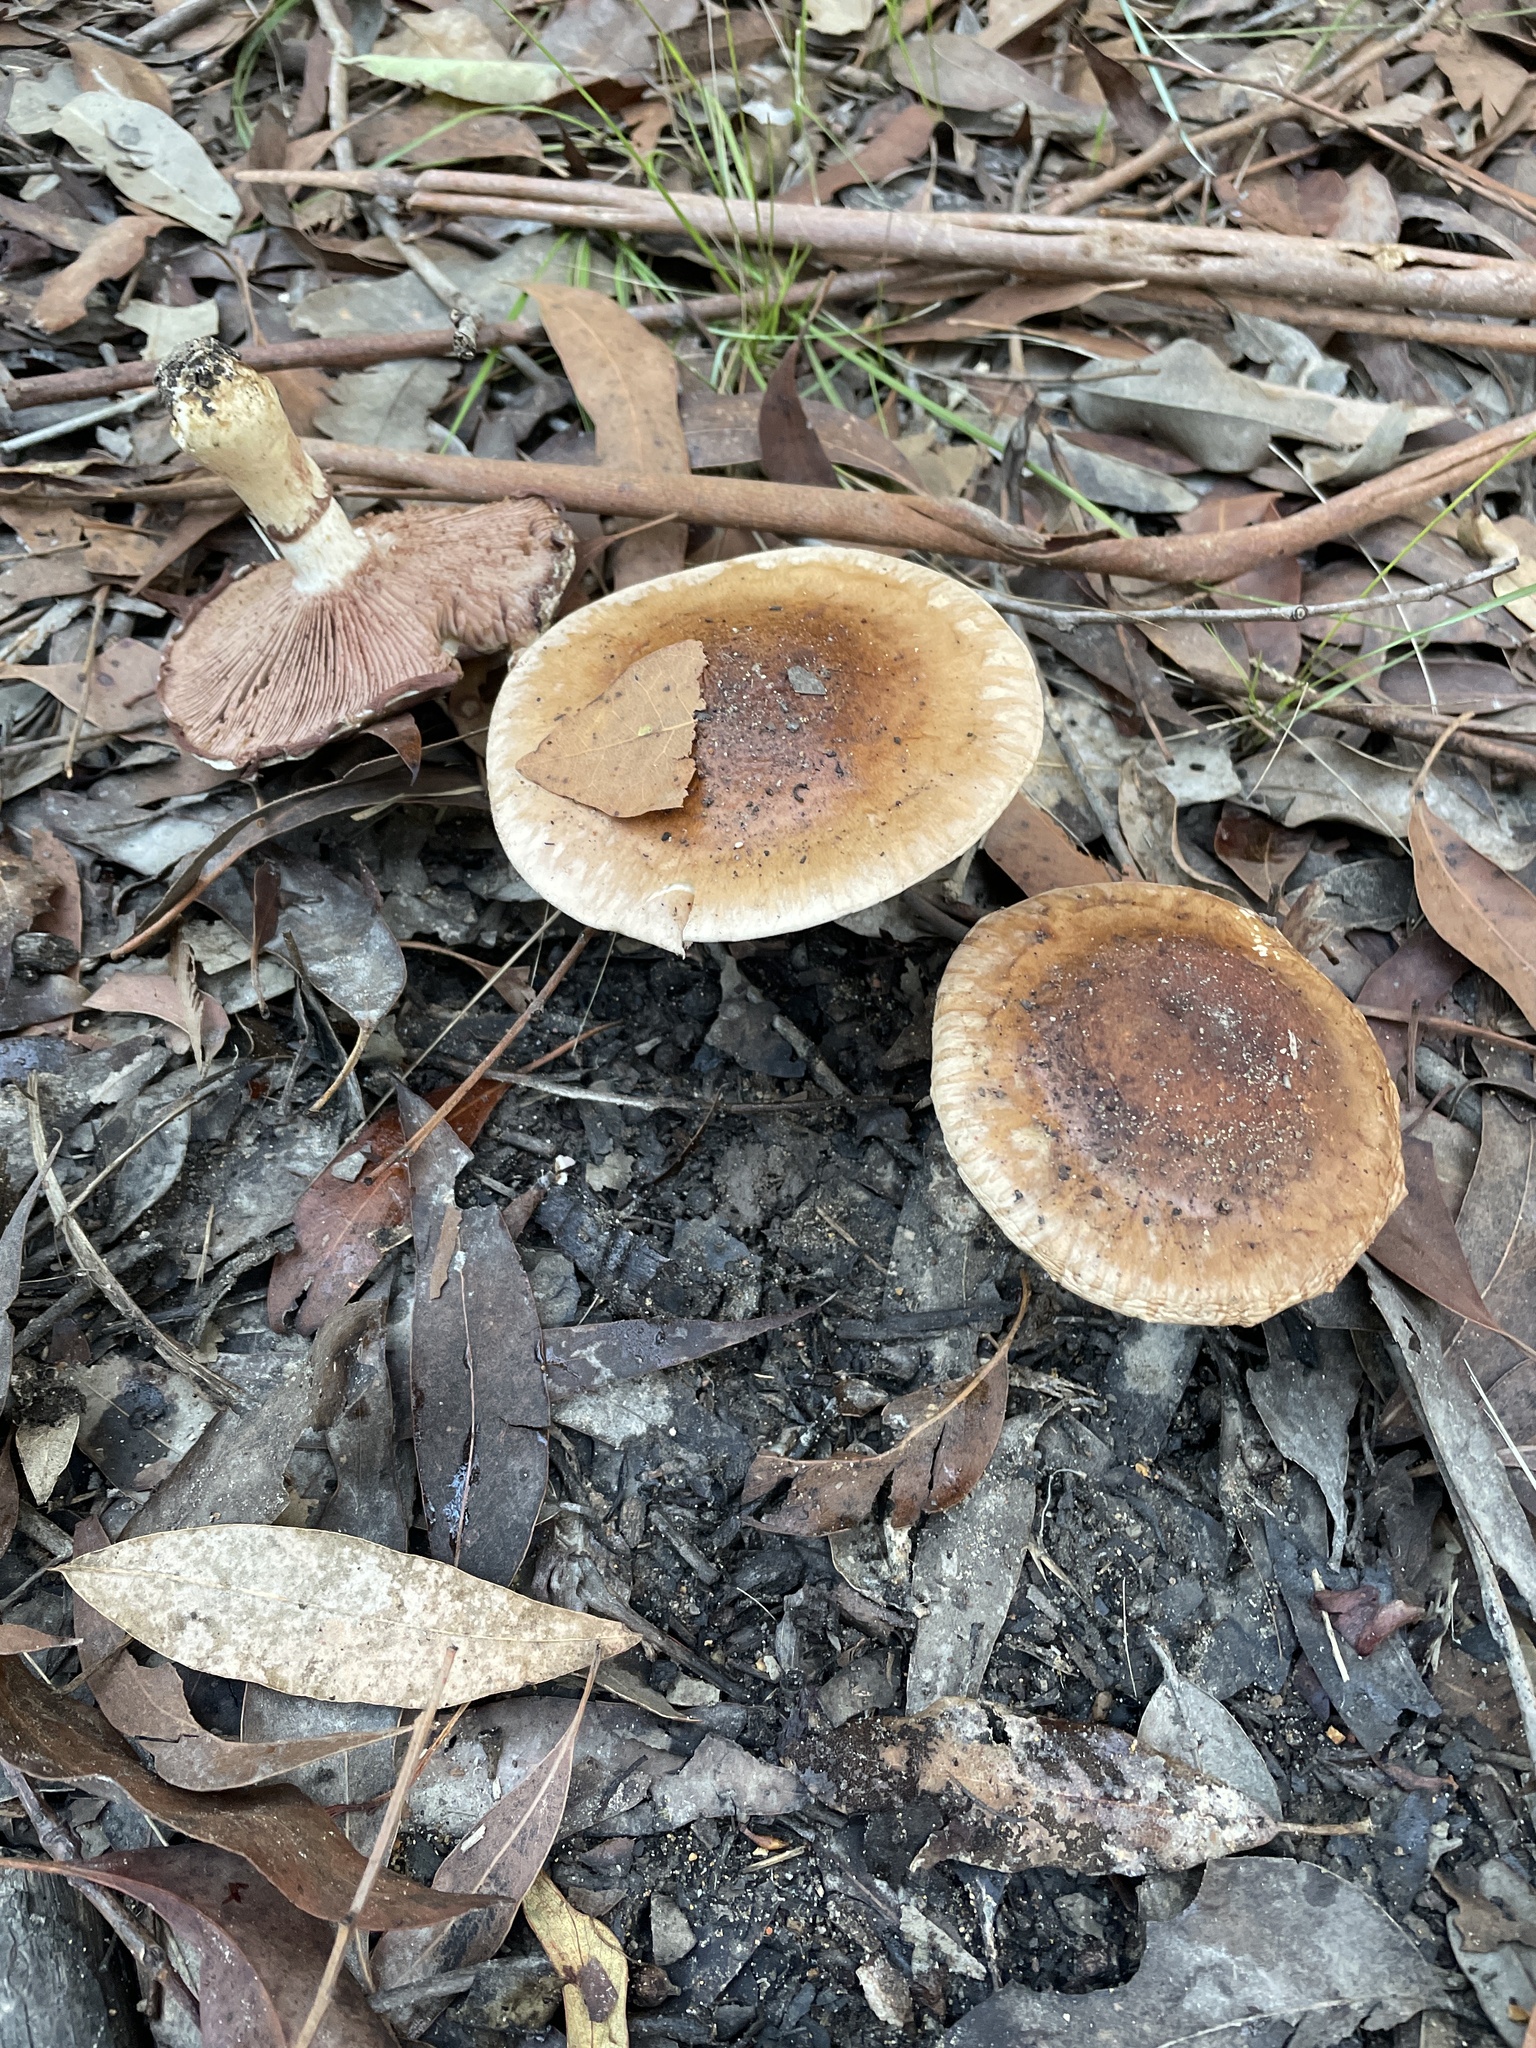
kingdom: Fungi
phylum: Basidiomycota
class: Agaricomycetes
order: Agaricales
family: Hymenogastraceae
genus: Hebeloma
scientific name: Hebeloma victoriense
